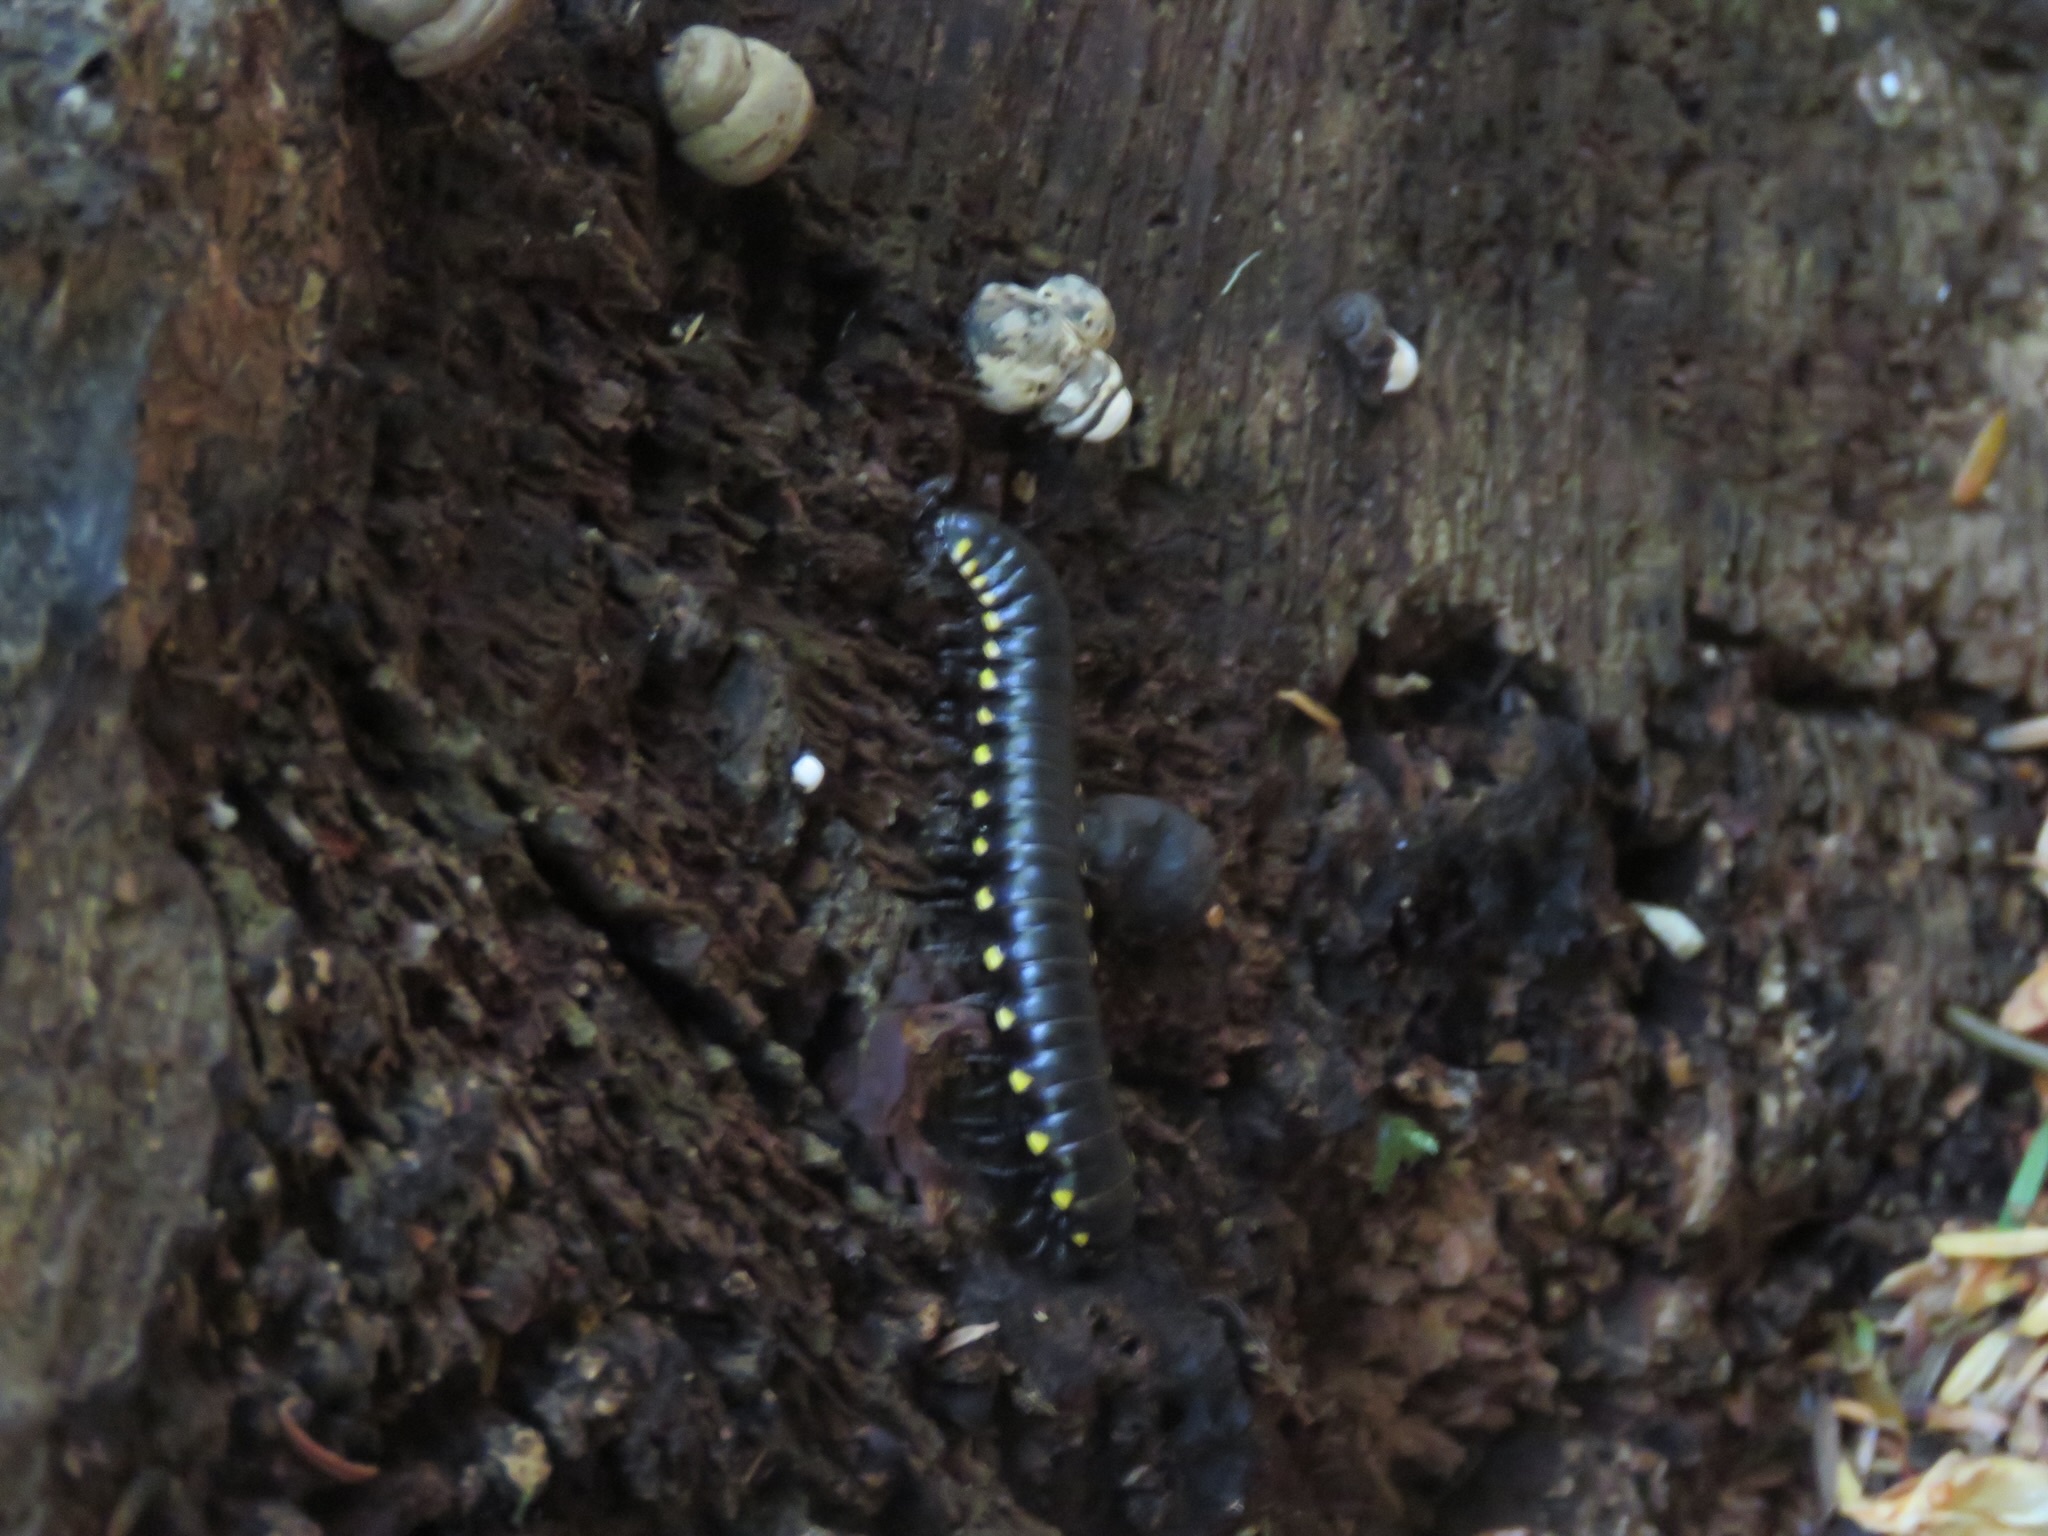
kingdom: Animalia
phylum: Arthropoda
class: Diplopoda
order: Polydesmida
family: Xystodesmidae
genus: Harpaphe
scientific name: Harpaphe haydeniana
